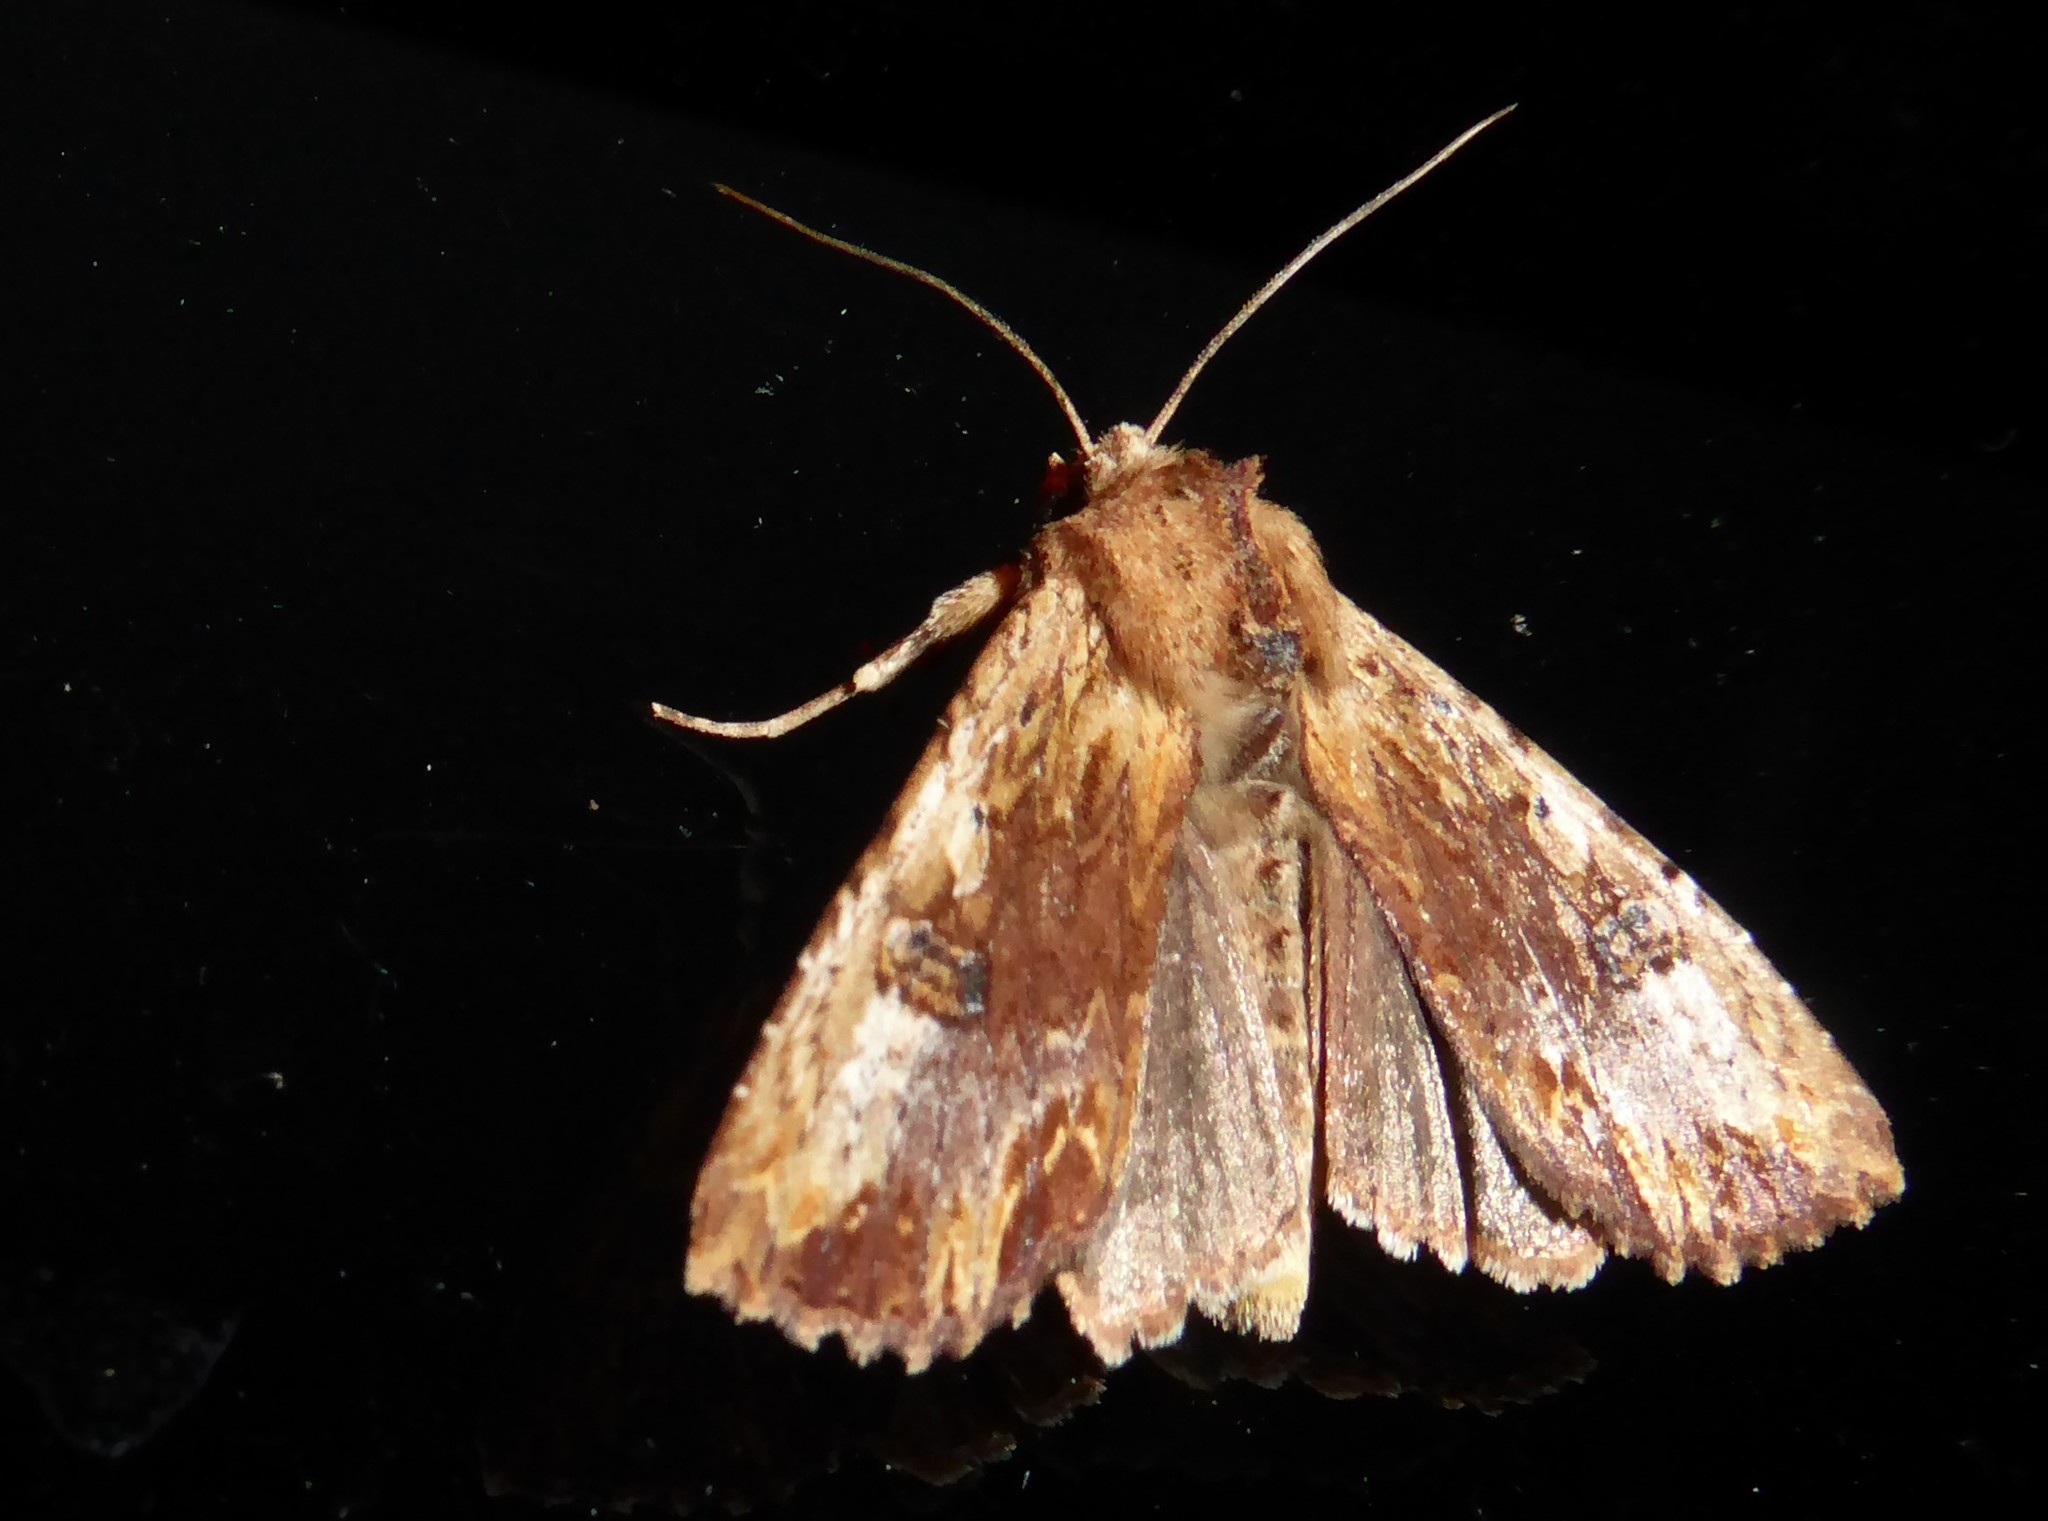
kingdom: Animalia
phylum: Arthropoda
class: Insecta
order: Lepidoptera
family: Noctuidae
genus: Ichneutica
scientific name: Ichneutica
